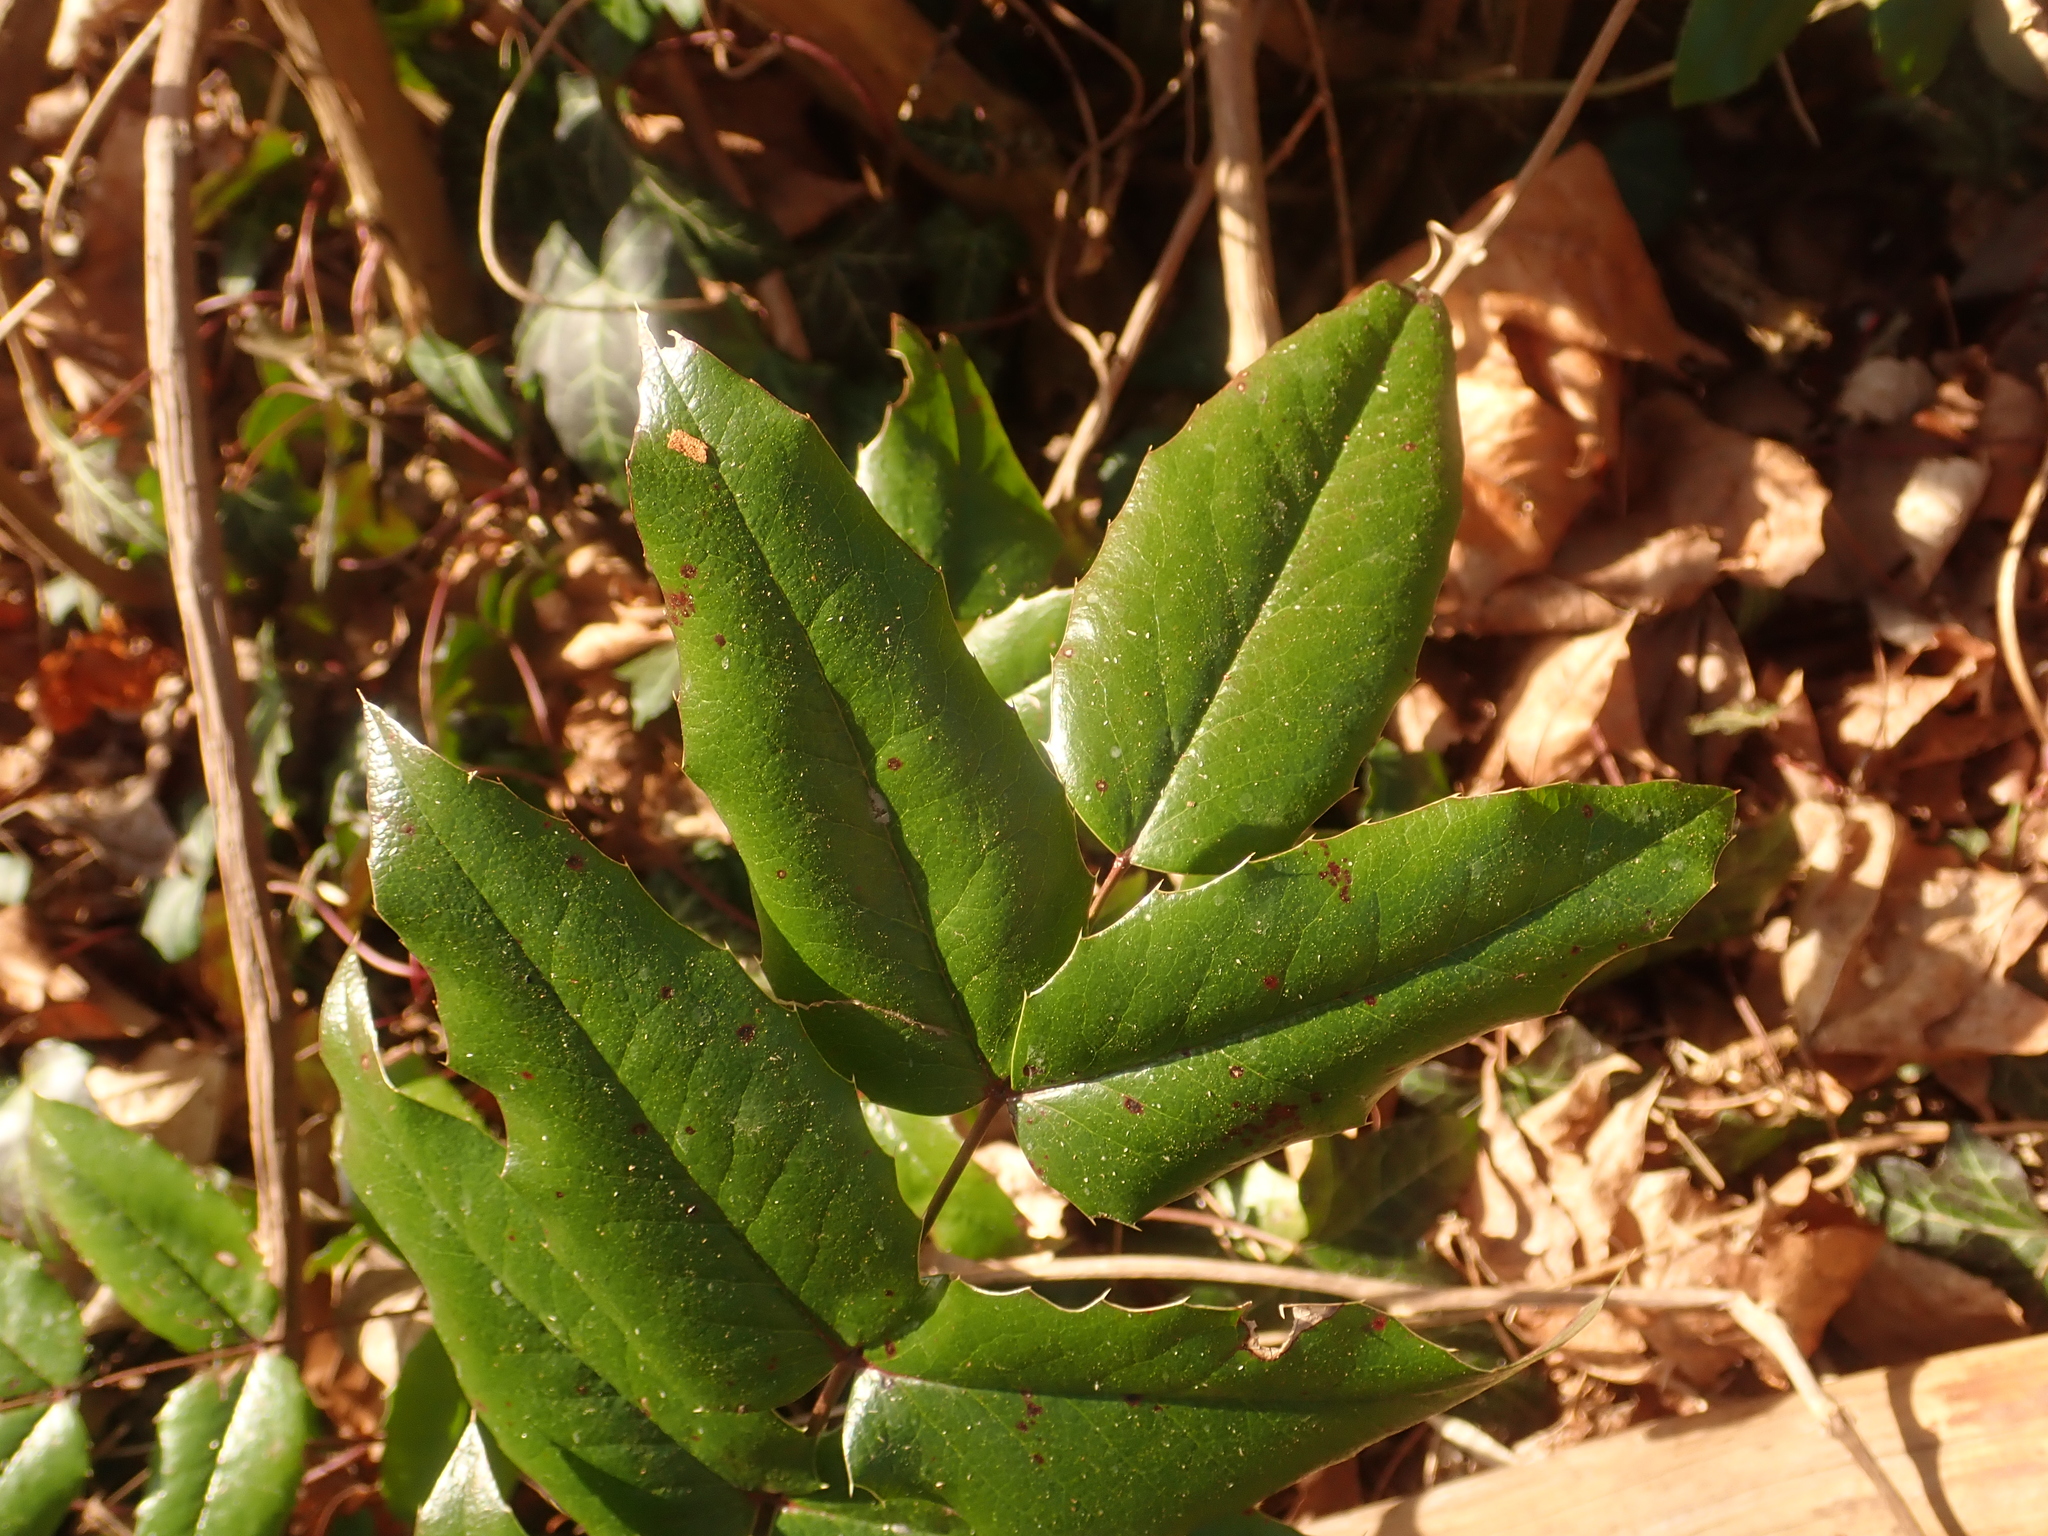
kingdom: Plantae
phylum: Tracheophyta
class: Magnoliopsida
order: Ranunculales
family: Berberidaceae
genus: Mahonia
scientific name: Mahonia aquifolium
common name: Oregon-grape
